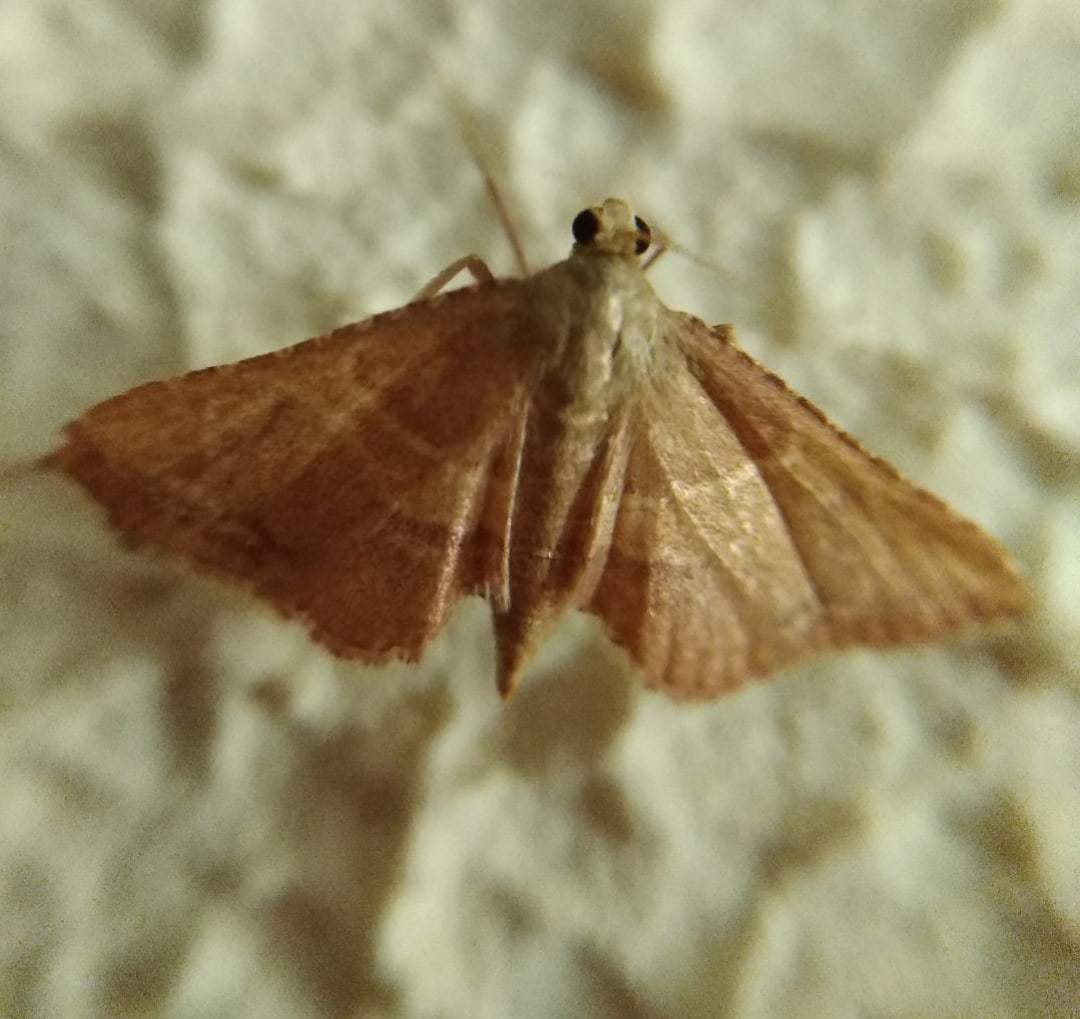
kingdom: Animalia
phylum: Arthropoda
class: Insecta
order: Lepidoptera
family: Pyralidae
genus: Endotricha
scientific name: Endotricha flammealis
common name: Rosy tabby
